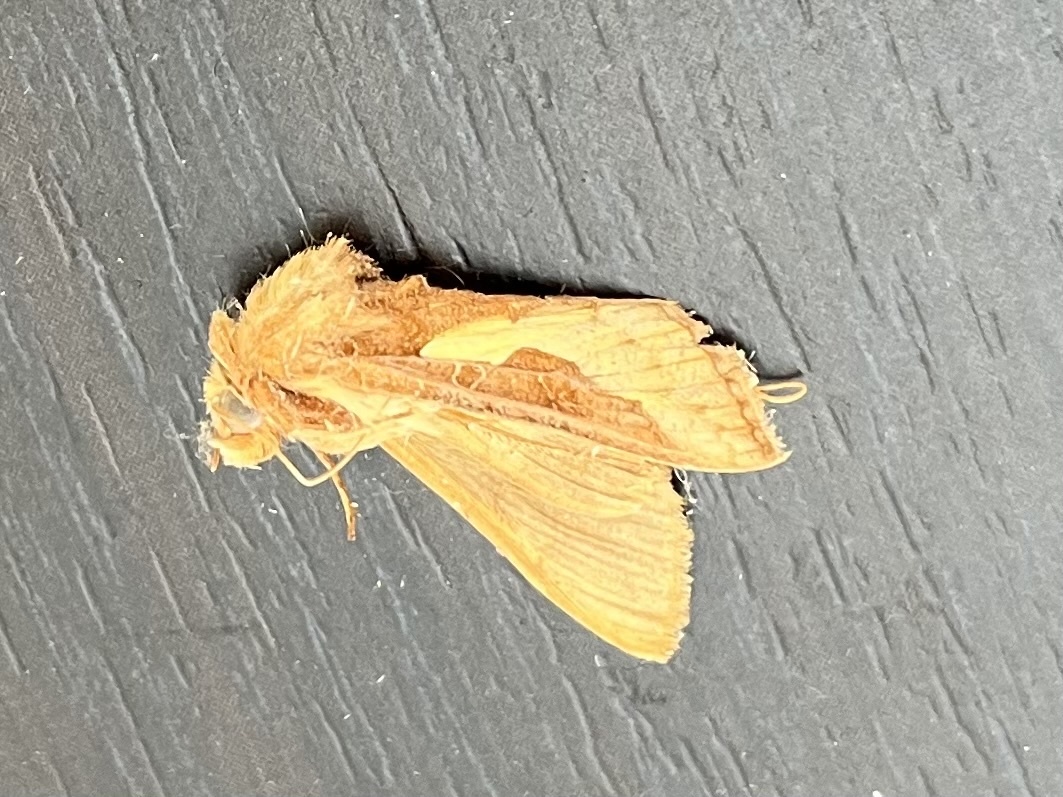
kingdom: Animalia
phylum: Arthropoda
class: Insecta
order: Lepidoptera
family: Noctuidae
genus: Thysanoplusia
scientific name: Thysanoplusia orichalcea
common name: Slender burnished brass, golden plusia
